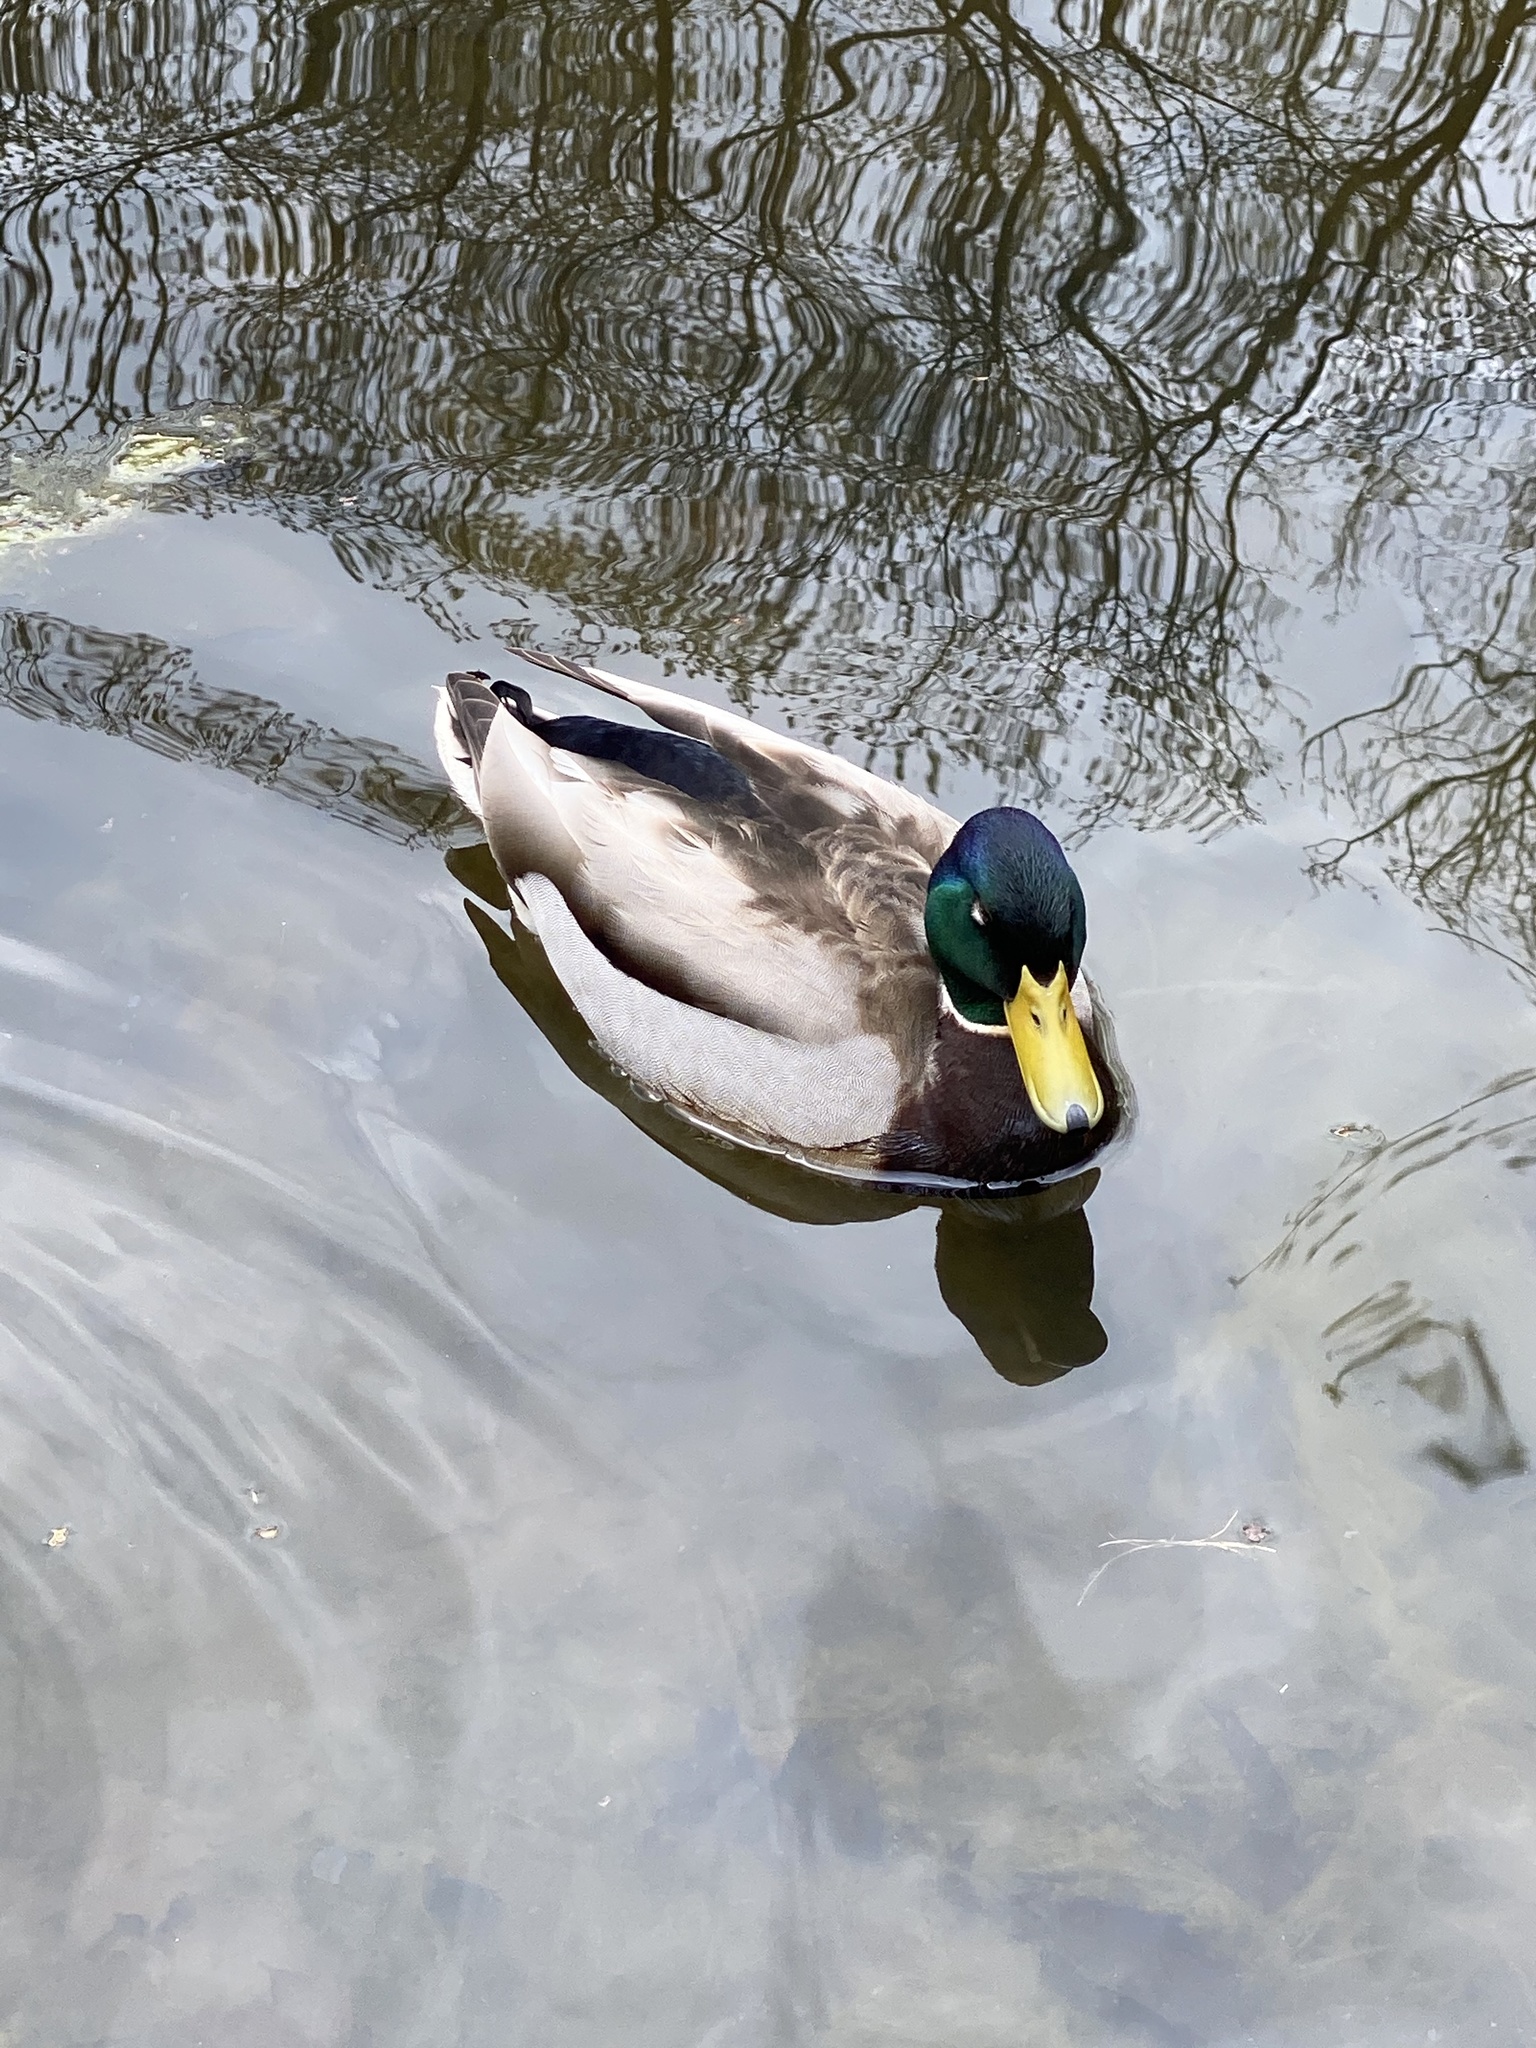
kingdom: Animalia
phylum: Chordata
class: Aves
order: Anseriformes
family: Anatidae
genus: Anas
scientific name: Anas platyrhynchos
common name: Mallard
